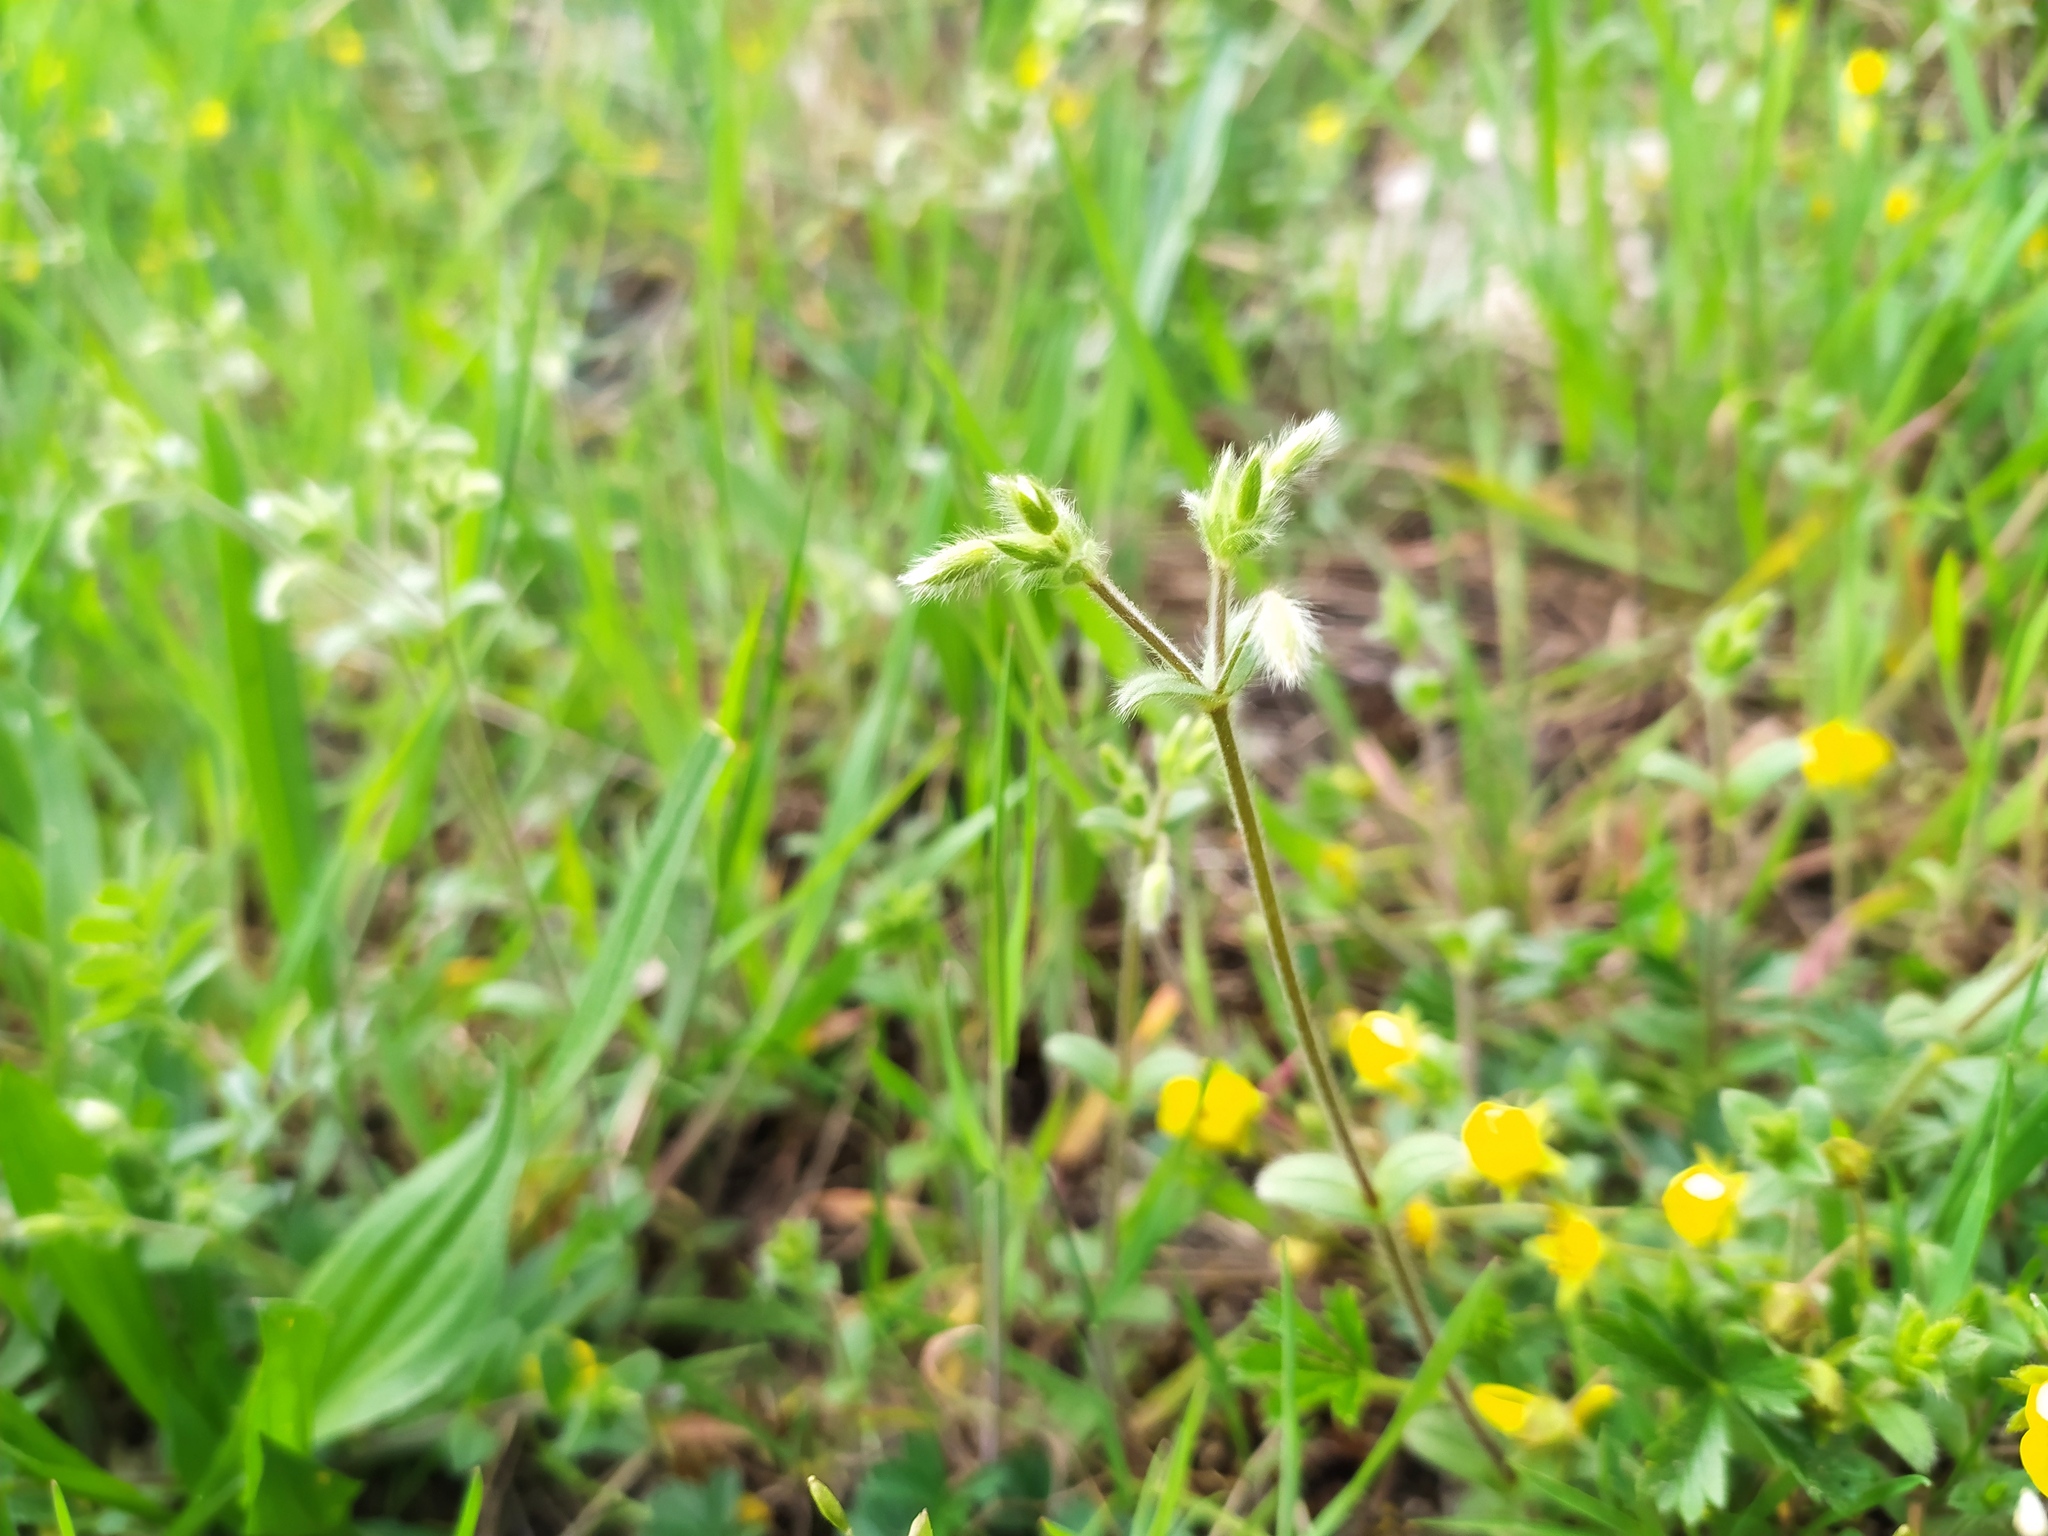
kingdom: Plantae
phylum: Tracheophyta
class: Magnoliopsida
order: Caryophyllales
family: Caryophyllaceae
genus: Cerastium
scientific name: Cerastium brachypetalum
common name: Grey mouse-ear
